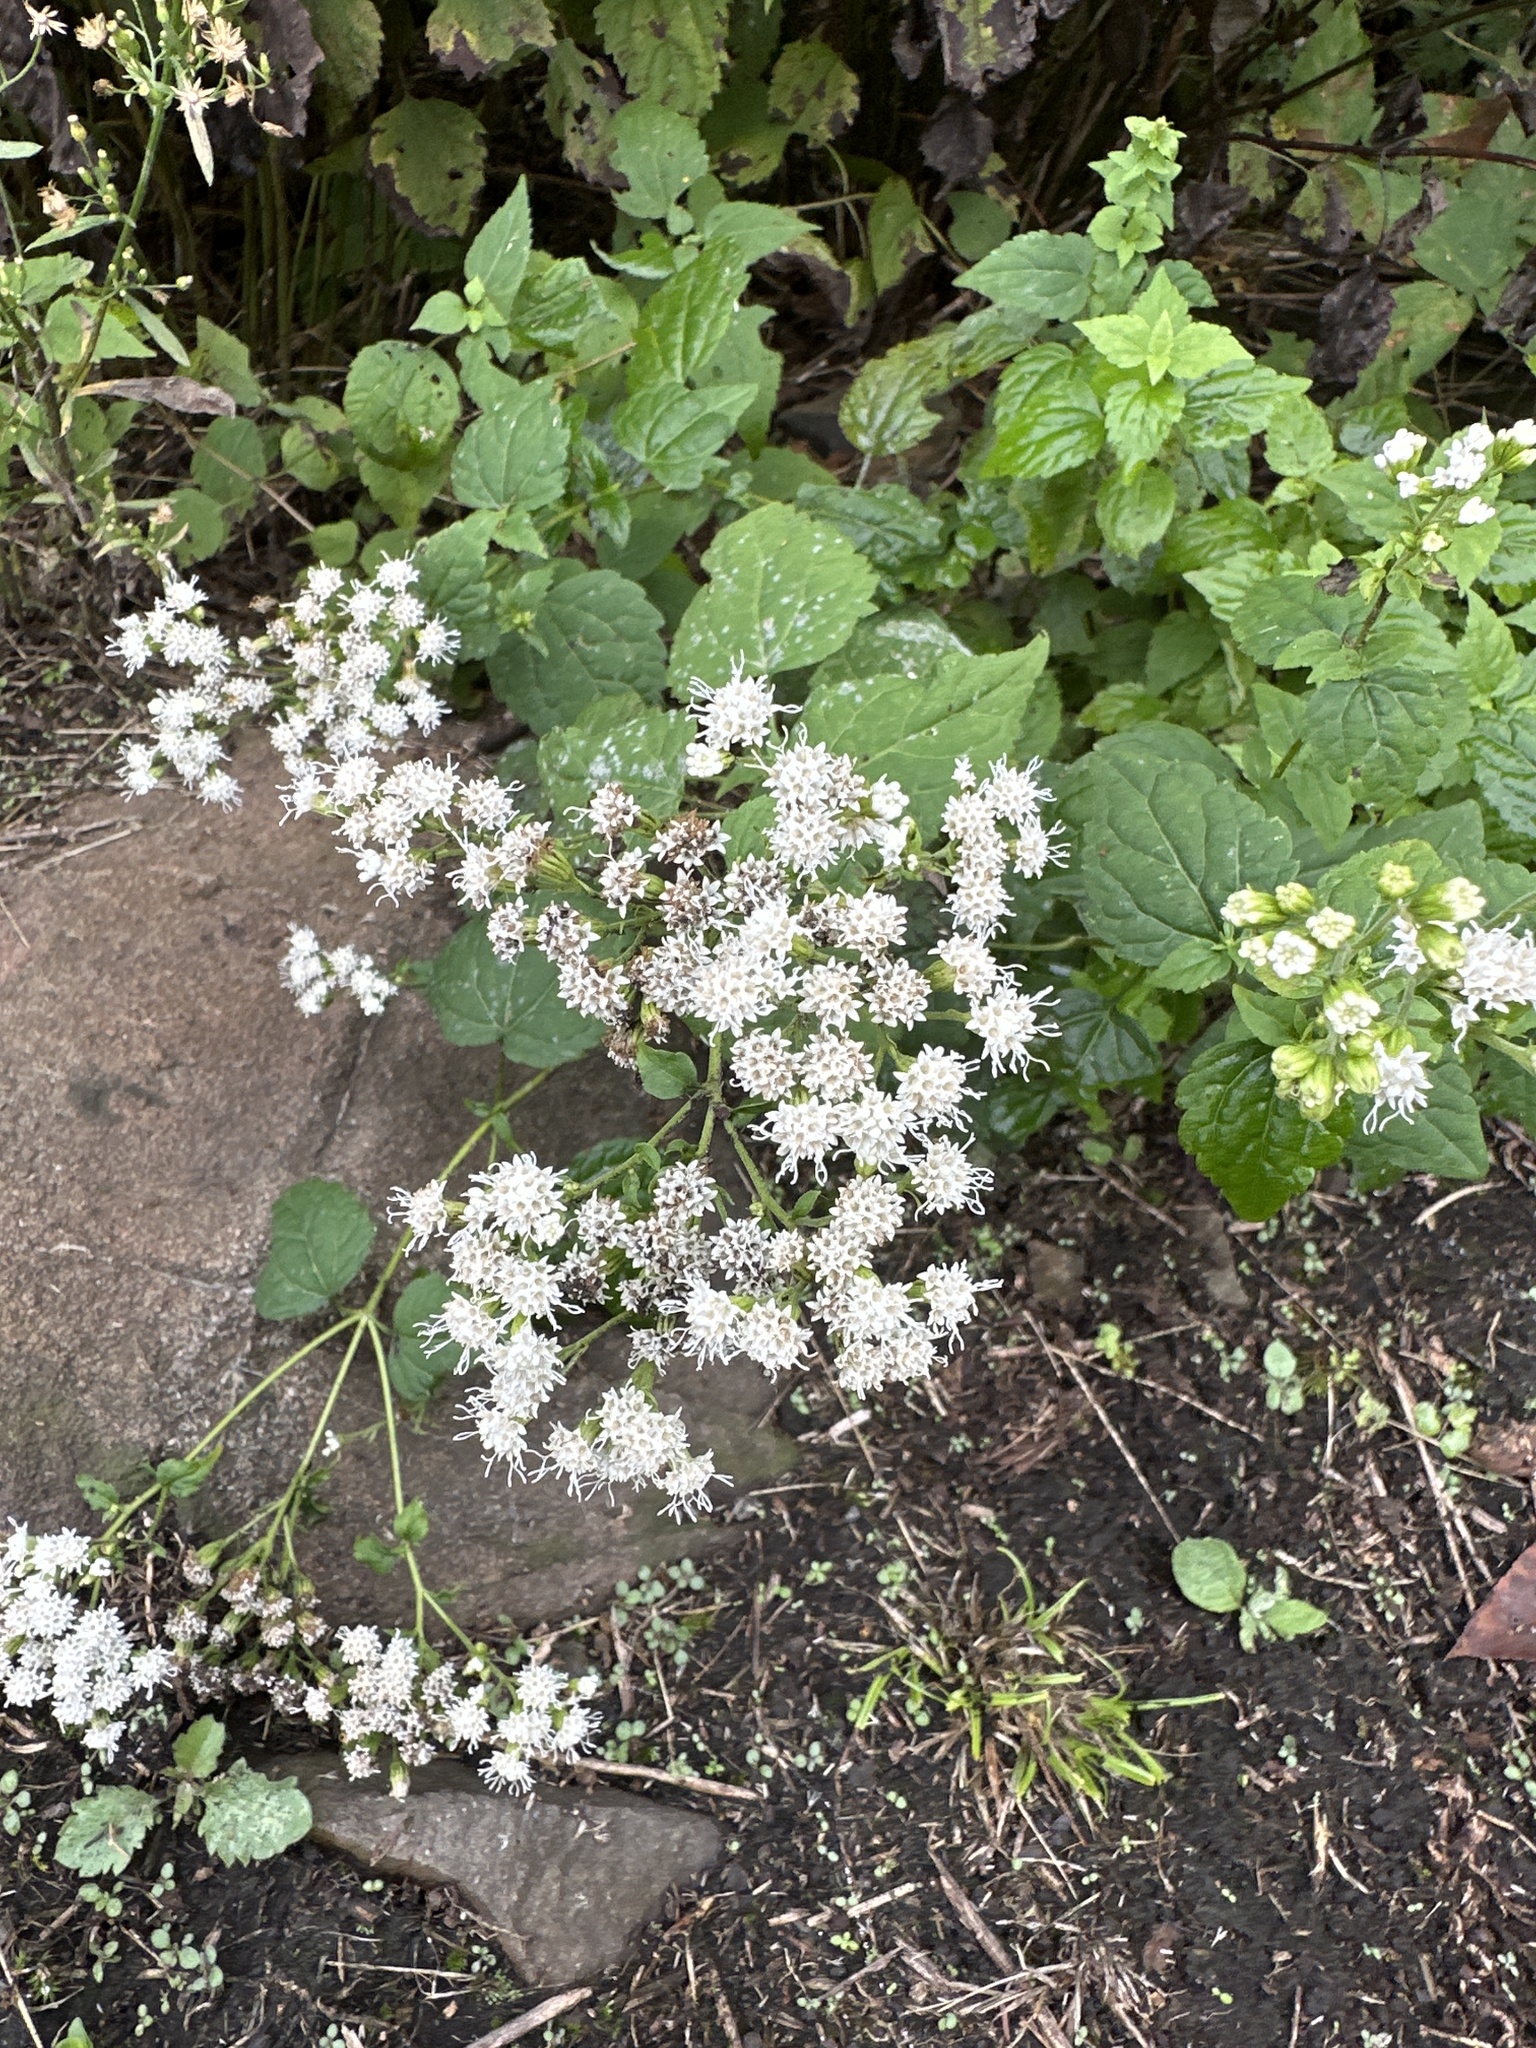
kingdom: Plantae
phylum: Tracheophyta
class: Magnoliopsida
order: Asterales
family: Asteraceae
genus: Ageratina
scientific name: Ageratina altissima
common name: White snakeroot
